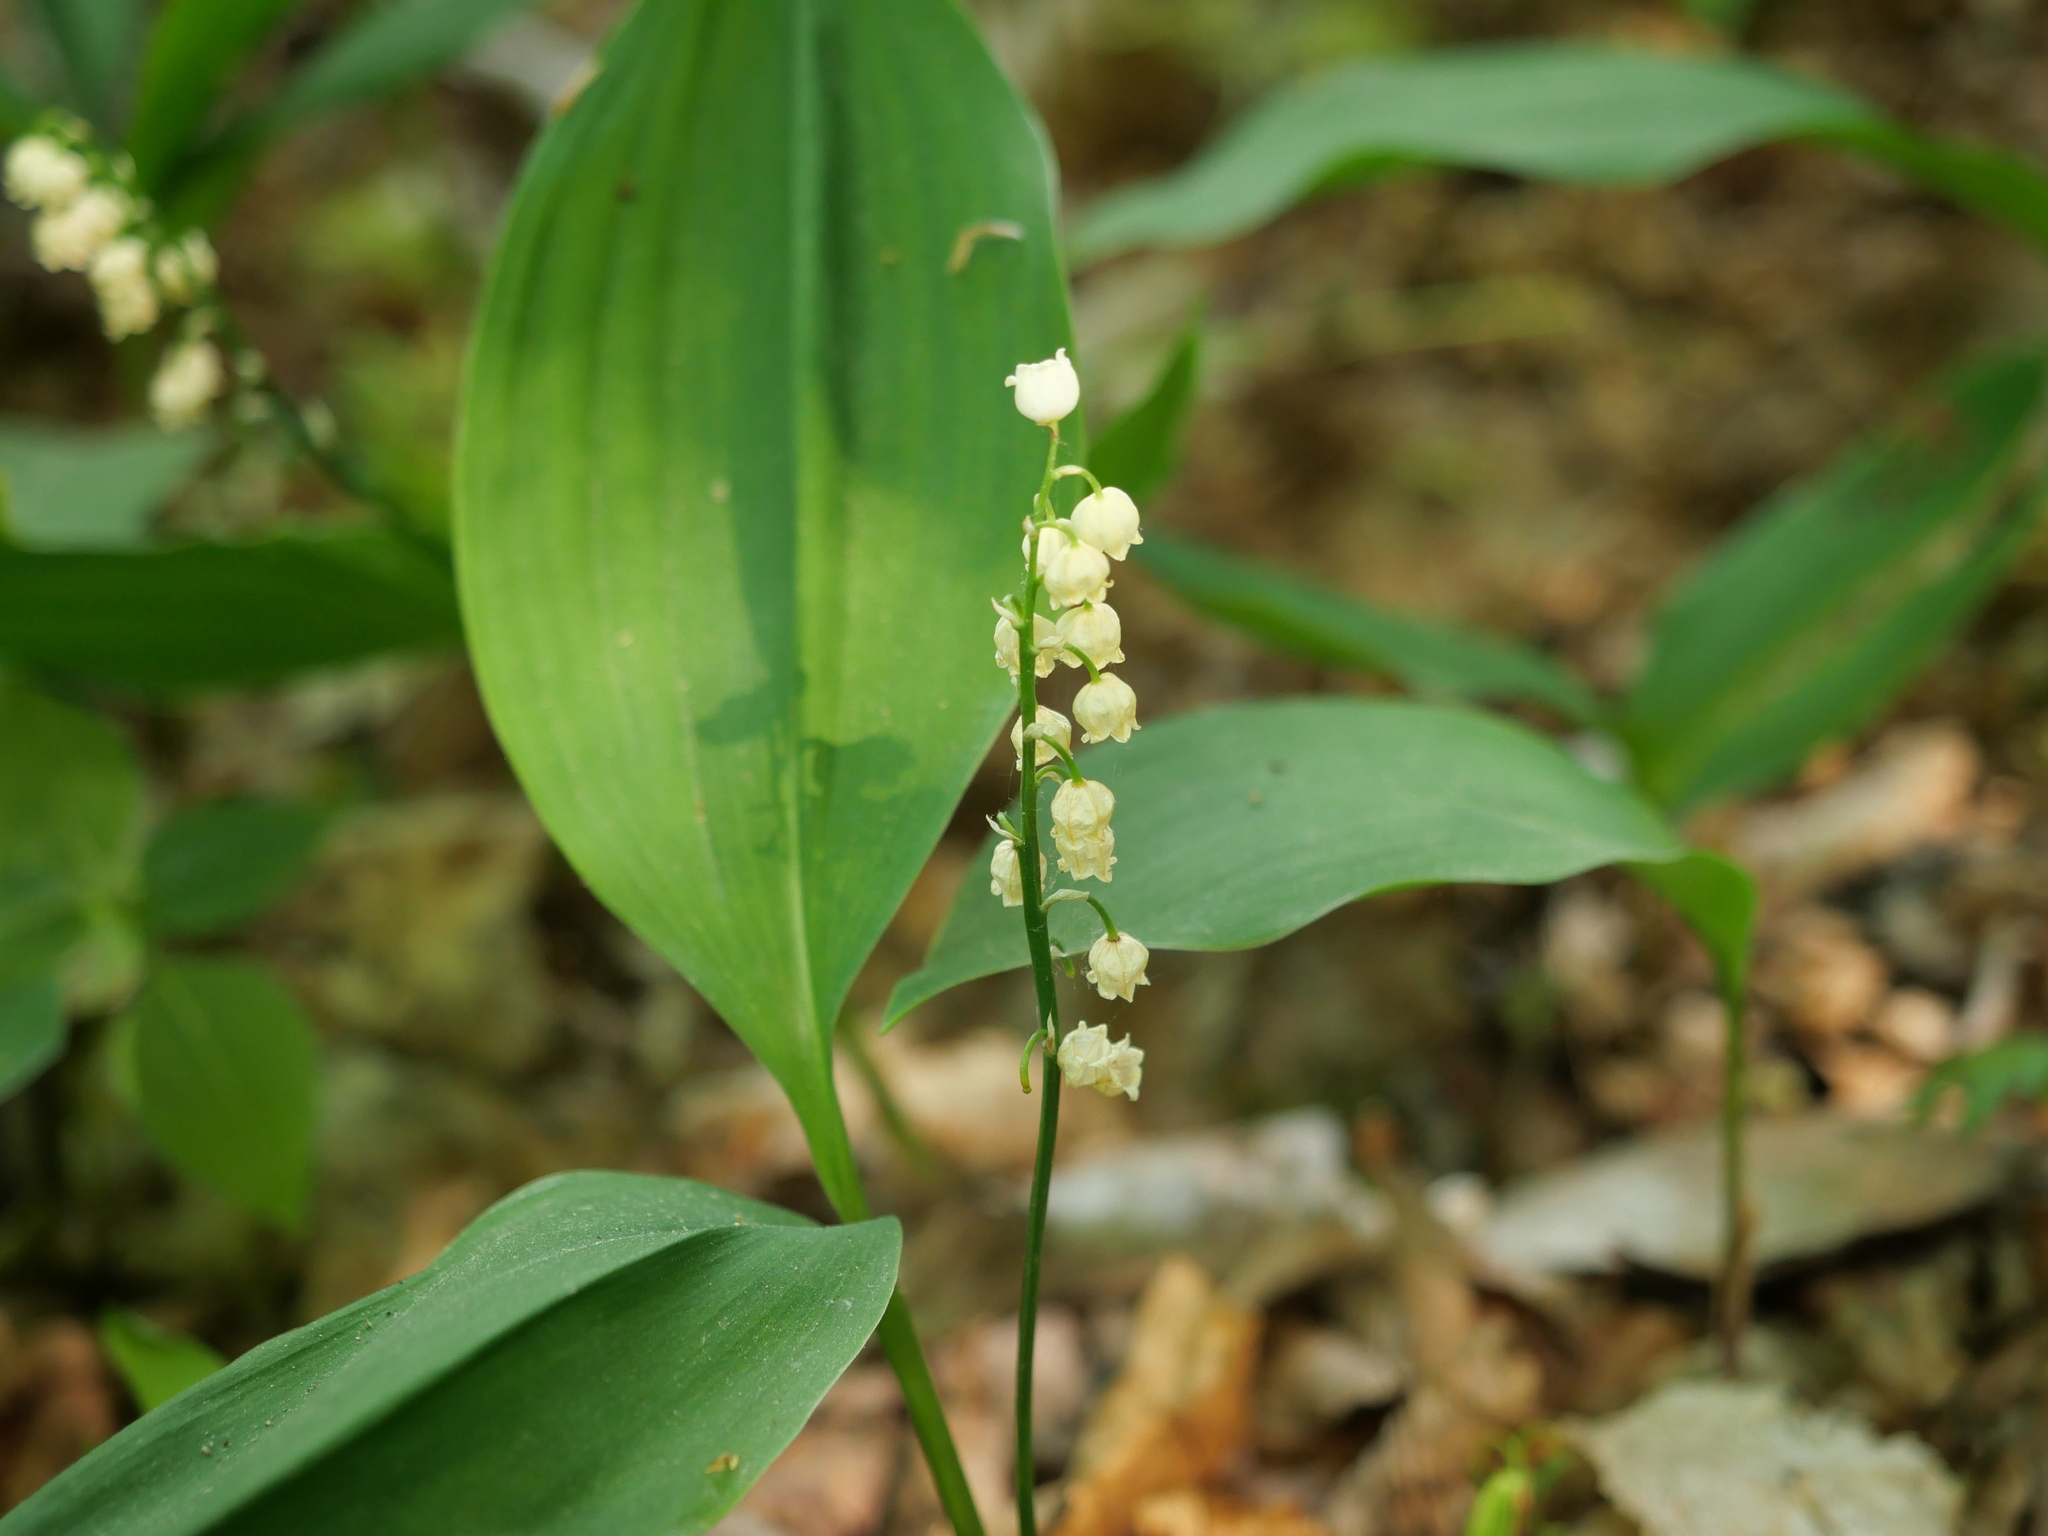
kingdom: Plantae
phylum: Tracheophyta
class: Liliopsida
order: Asparagales
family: Asparagaceae
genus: Convallaria
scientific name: Convallaria majalis
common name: Lily-of-the-valley
